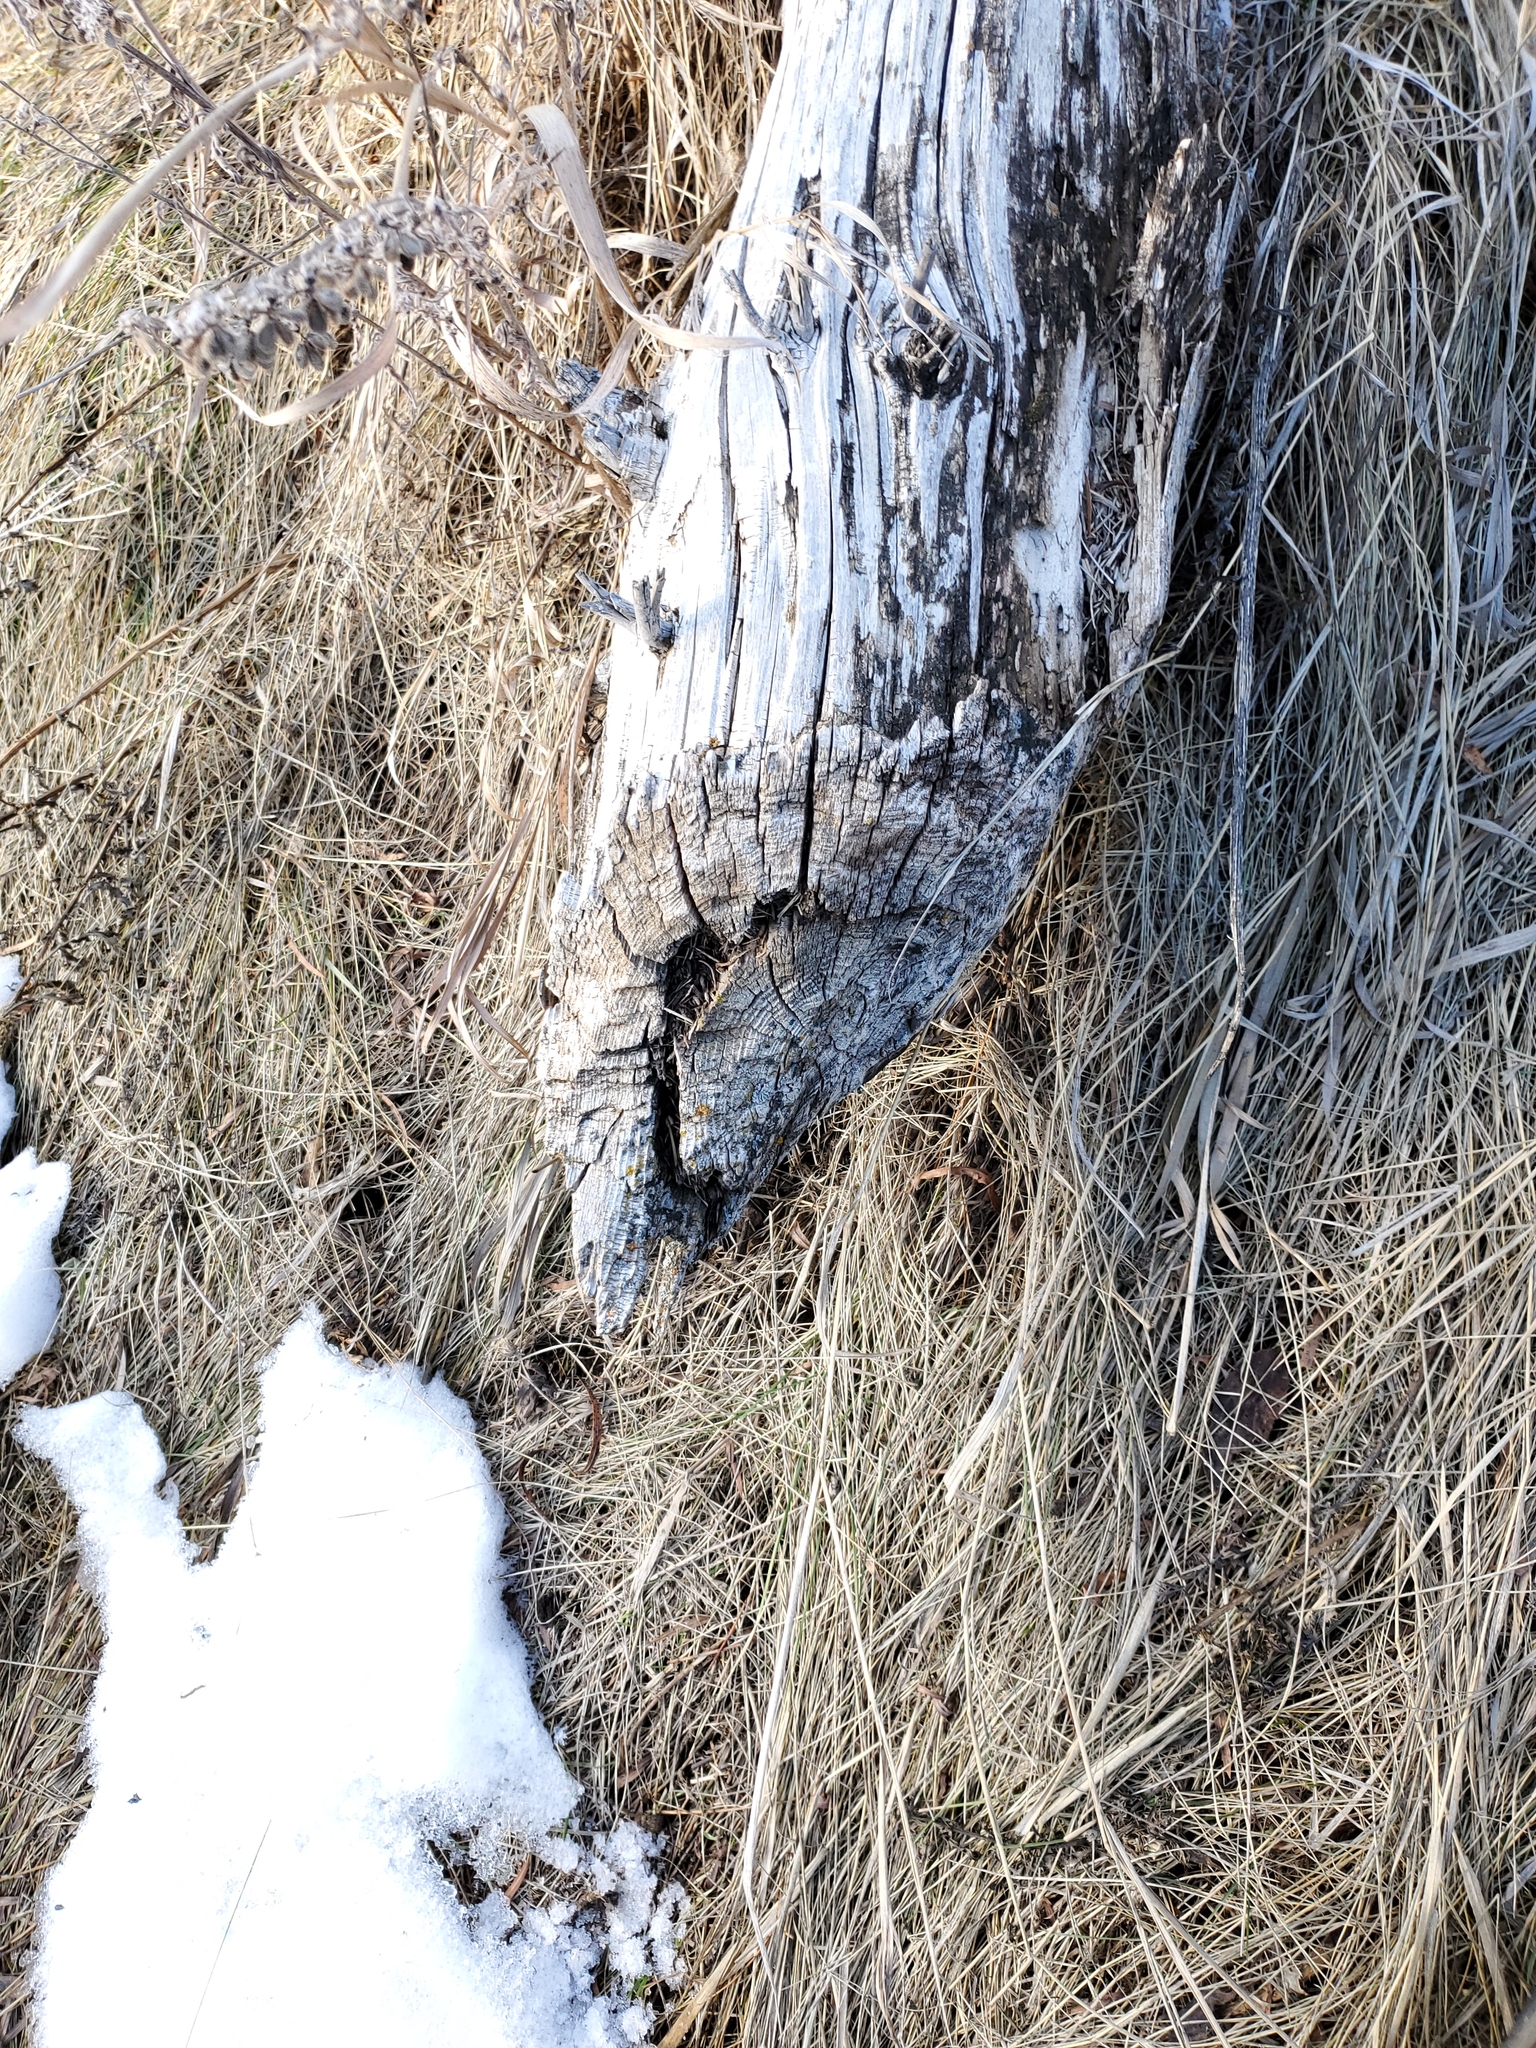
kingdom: Animalia
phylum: Chordata
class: Mammalia
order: Rodentia
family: Castoridae
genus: Castor
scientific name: Castor canadensis
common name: American beaver
